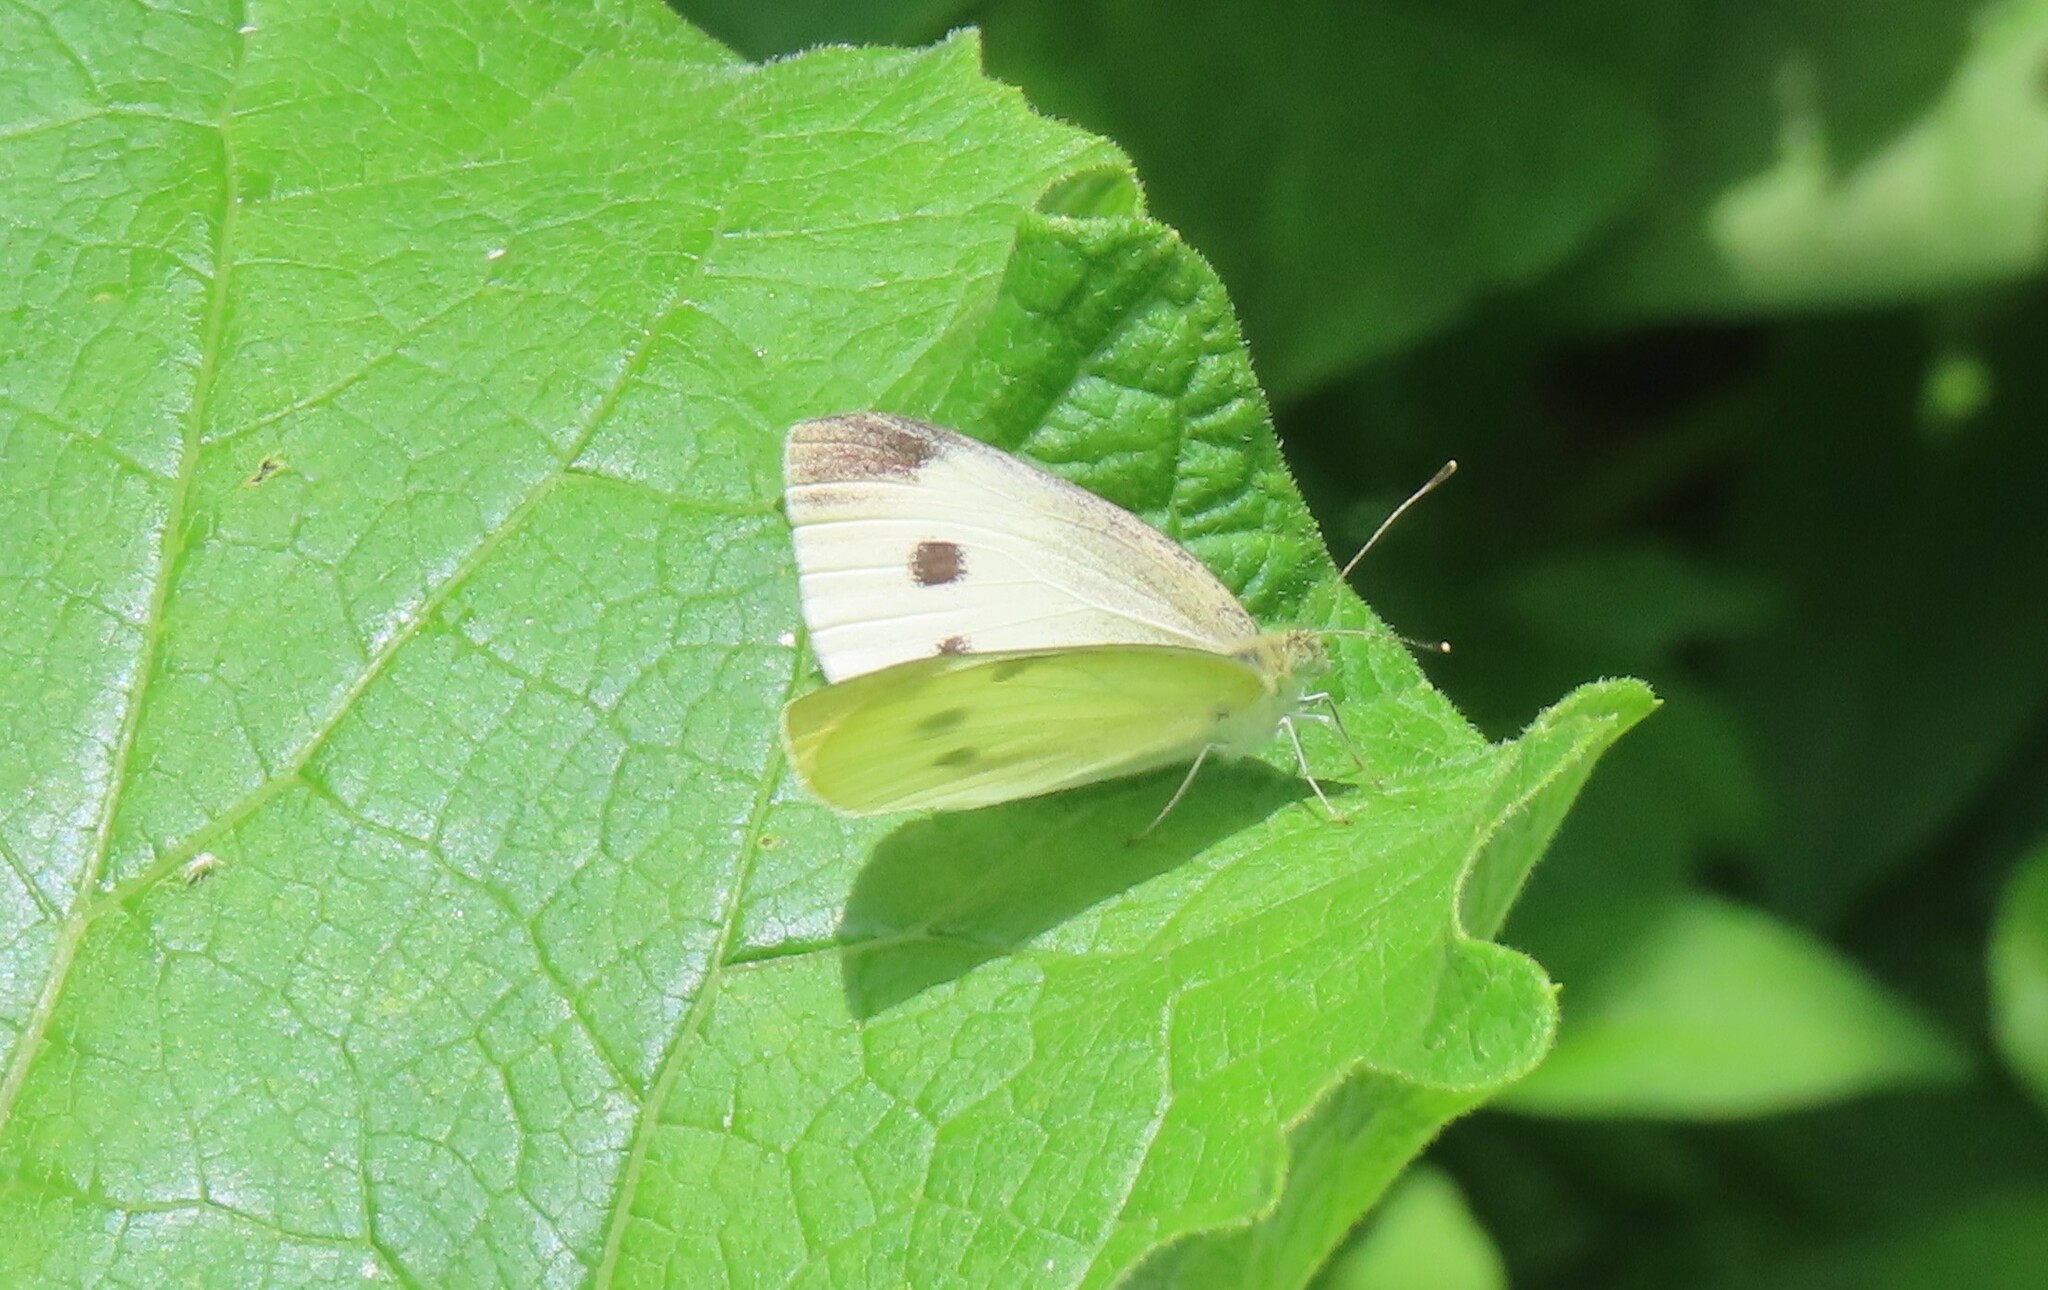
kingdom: Animalia
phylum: Arthropoda
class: Insecta
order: Lepidoptera
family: Pieridae
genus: Pieris
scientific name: Pieris rapae
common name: Small white
